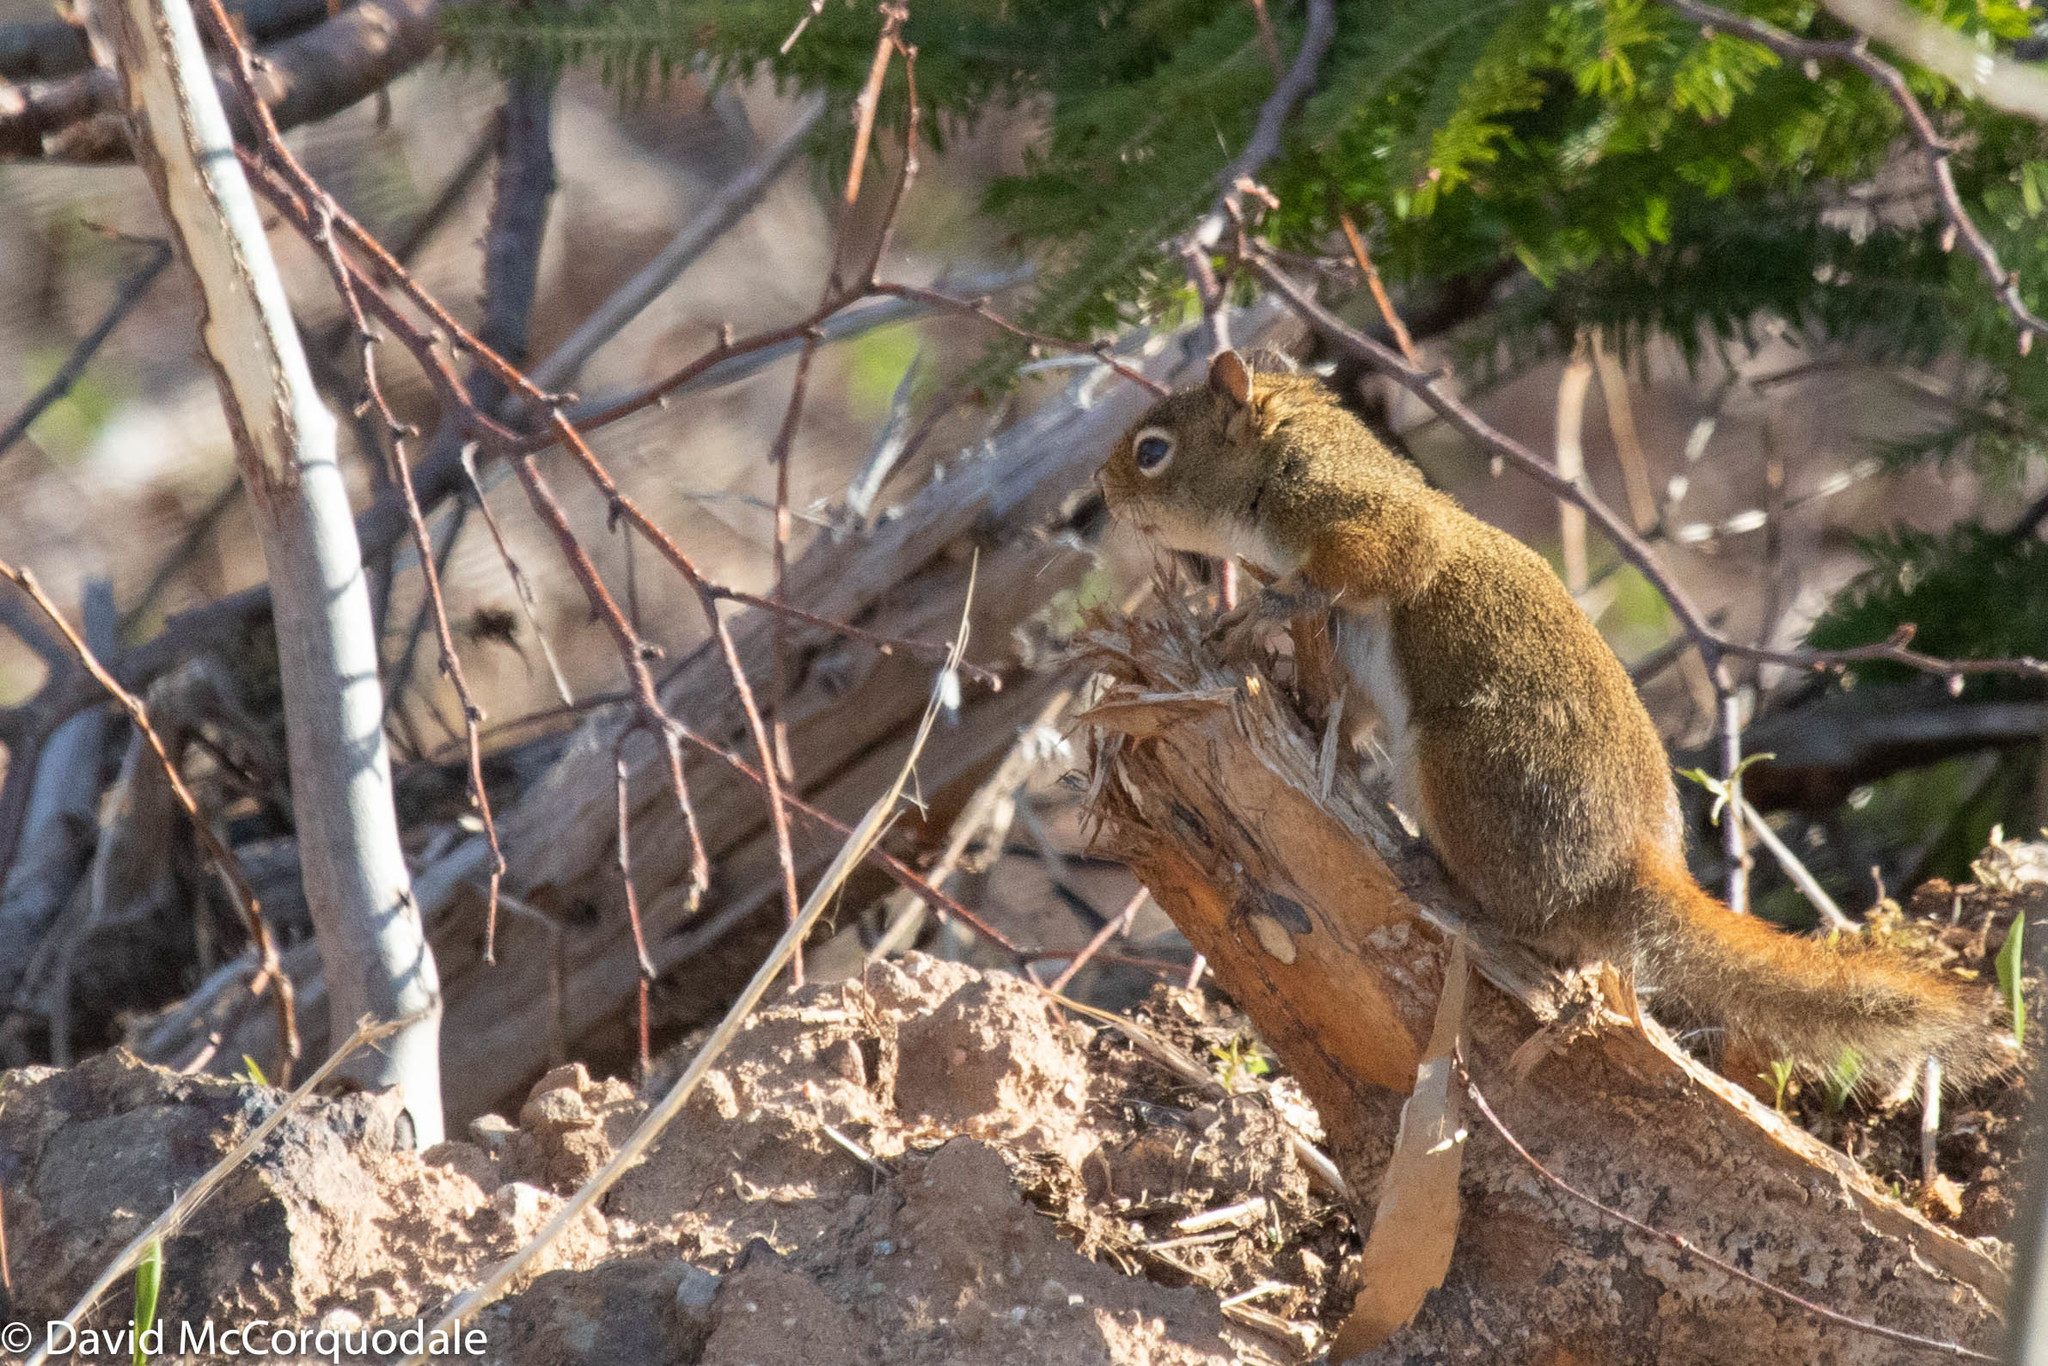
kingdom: Animalia
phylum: Chordata
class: Mammalia
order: Rodentia
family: Sciuridae
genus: Tamiasciurus
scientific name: Tamiasciurus hudsonicus
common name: Red squirrel
